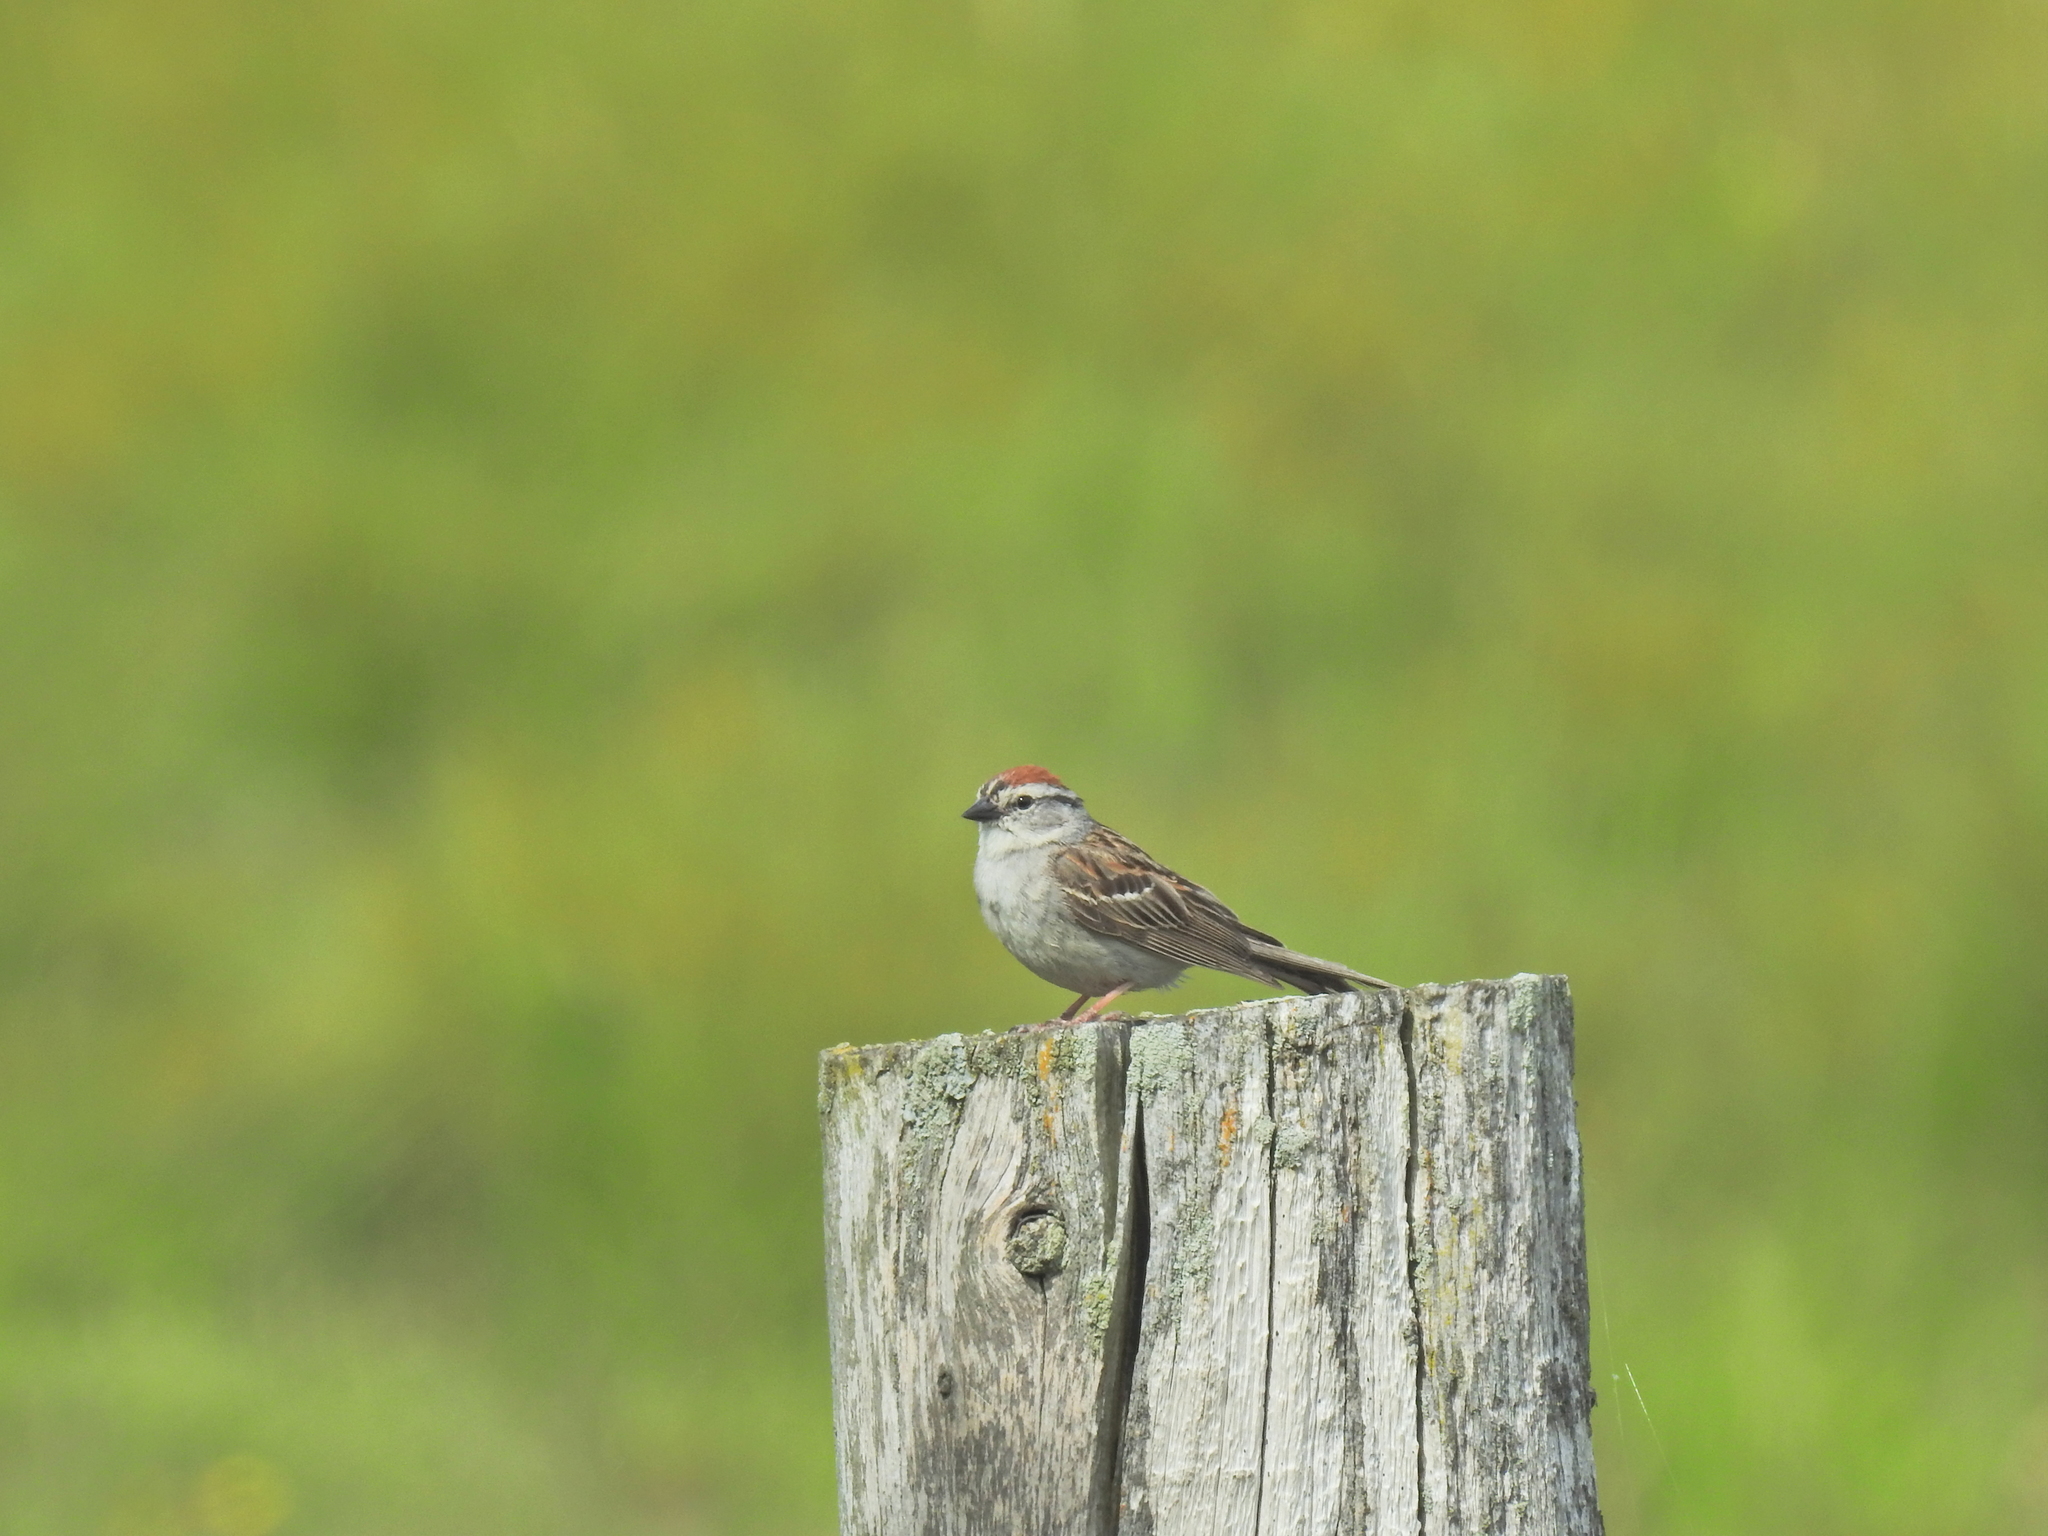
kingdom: Animalia
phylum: Chordata
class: Aves
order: Passeriformes
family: Passerellidae
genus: Spizella
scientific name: Spizella passerina
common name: Chipping sparrow
